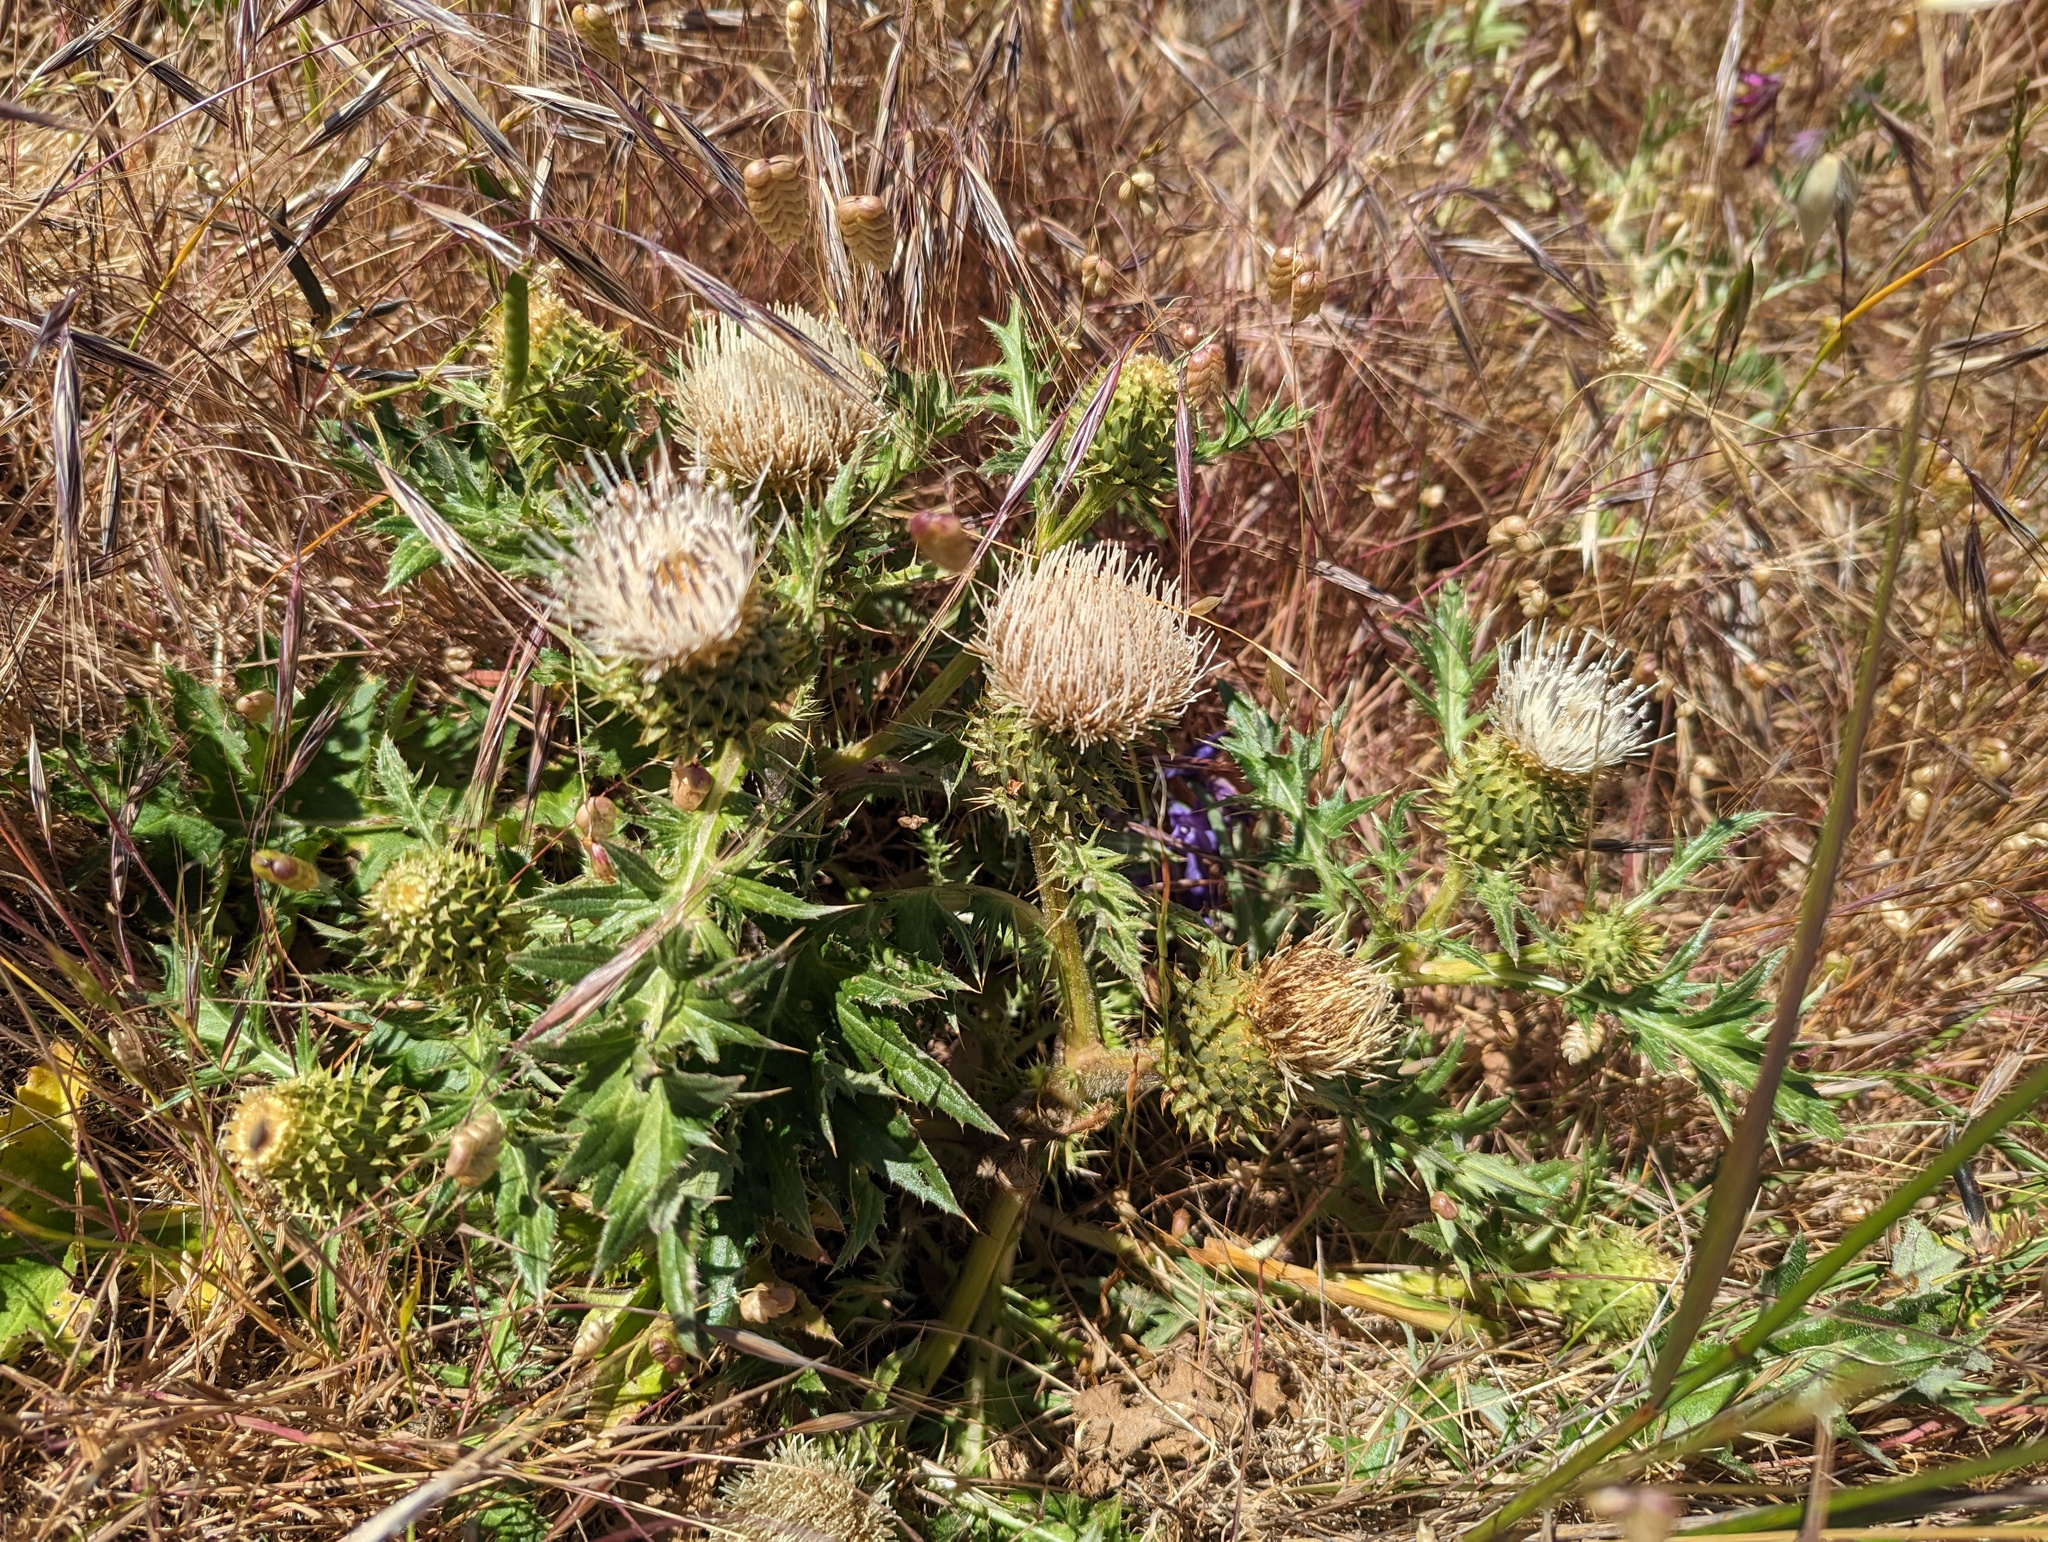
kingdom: Plantae
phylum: Tracheophyta
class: Magnoliopsida
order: Asterales
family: Asteraceae
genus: Cirsium
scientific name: Cirsium quercetorum
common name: Alameda county thistle
